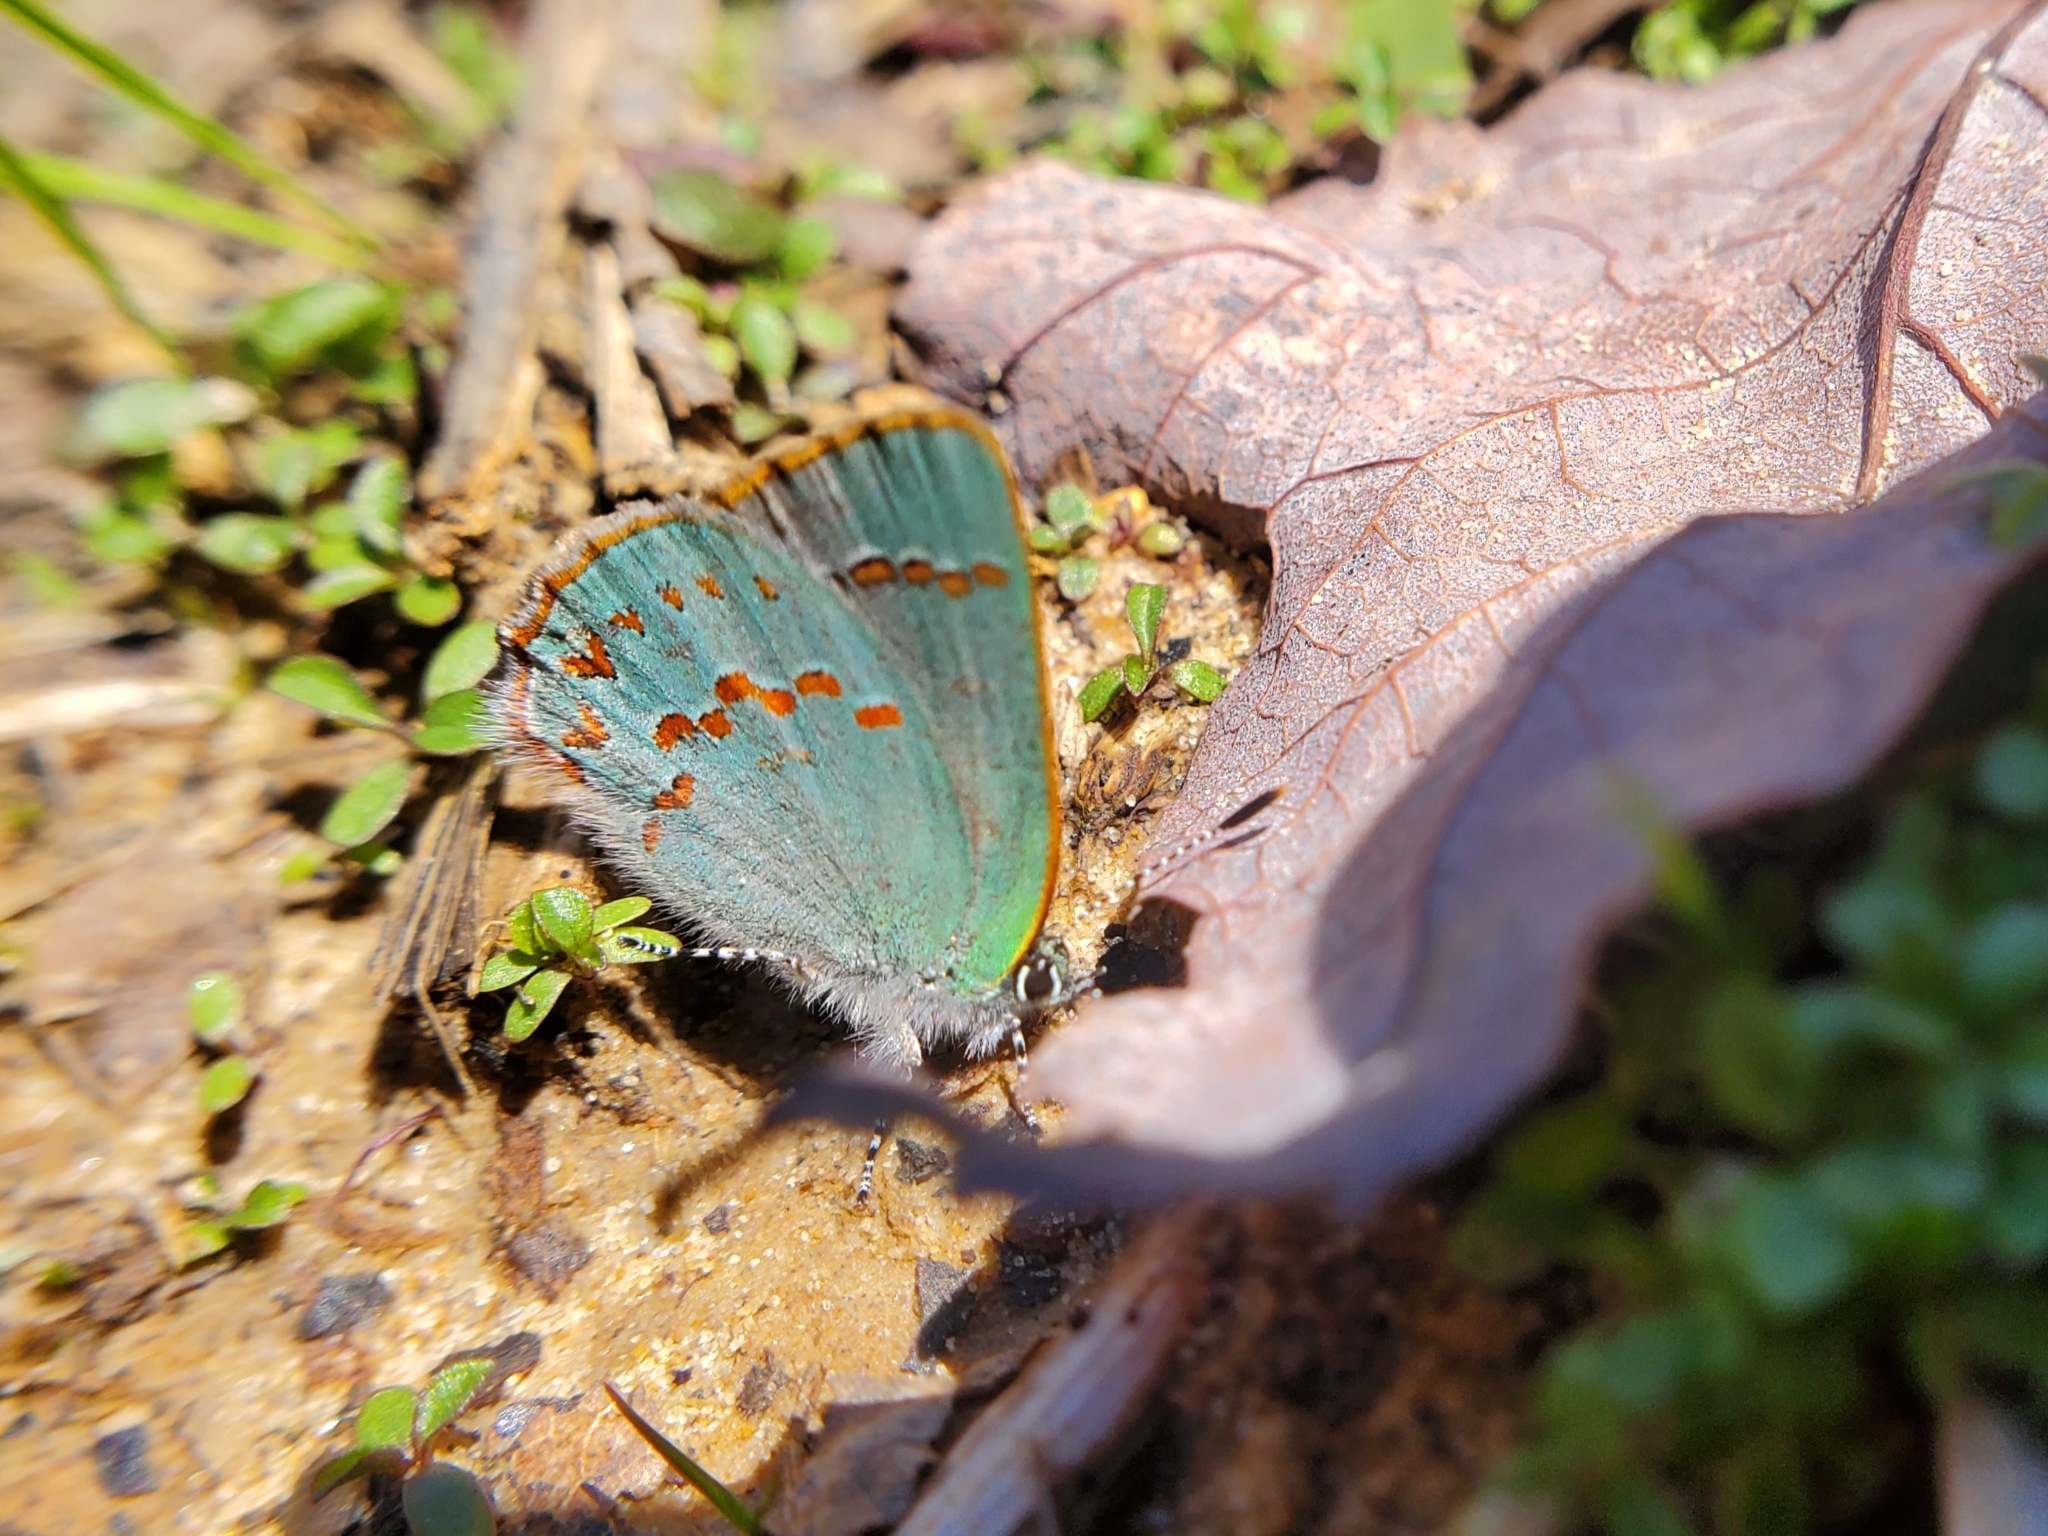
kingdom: Animalia
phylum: Arthropoda
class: Insecta
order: Lepidoptera
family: Lycaenidae
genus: Erora
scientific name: Erora laeta
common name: Early hairstreak
